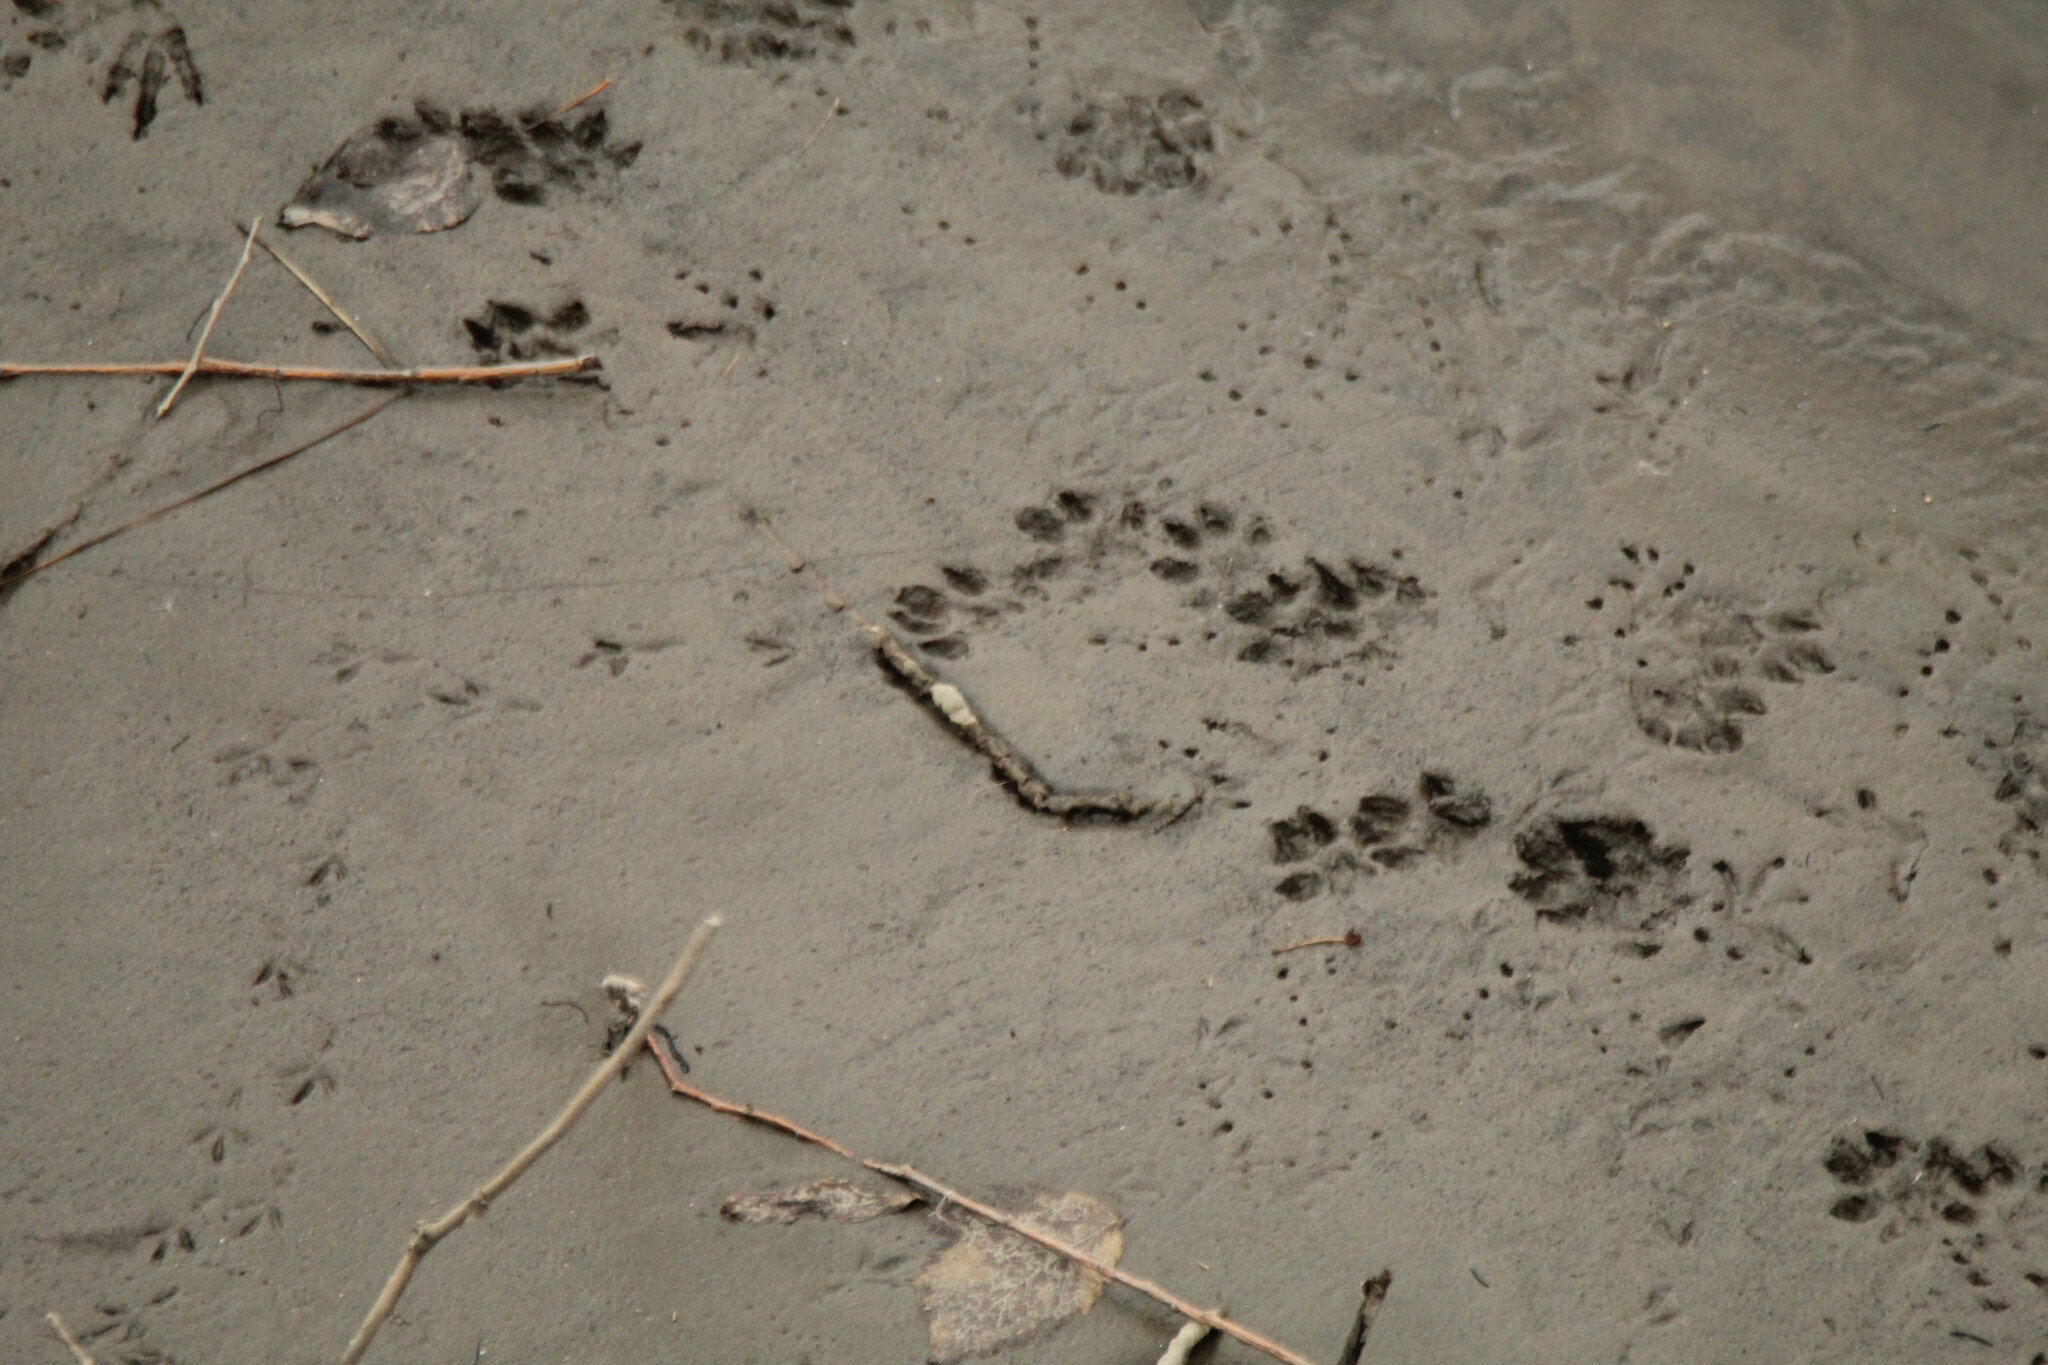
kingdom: Animalia
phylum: Chordata
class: Mammalia
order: Carnivora
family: Mustelidae
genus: Mustela
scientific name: Mustela
